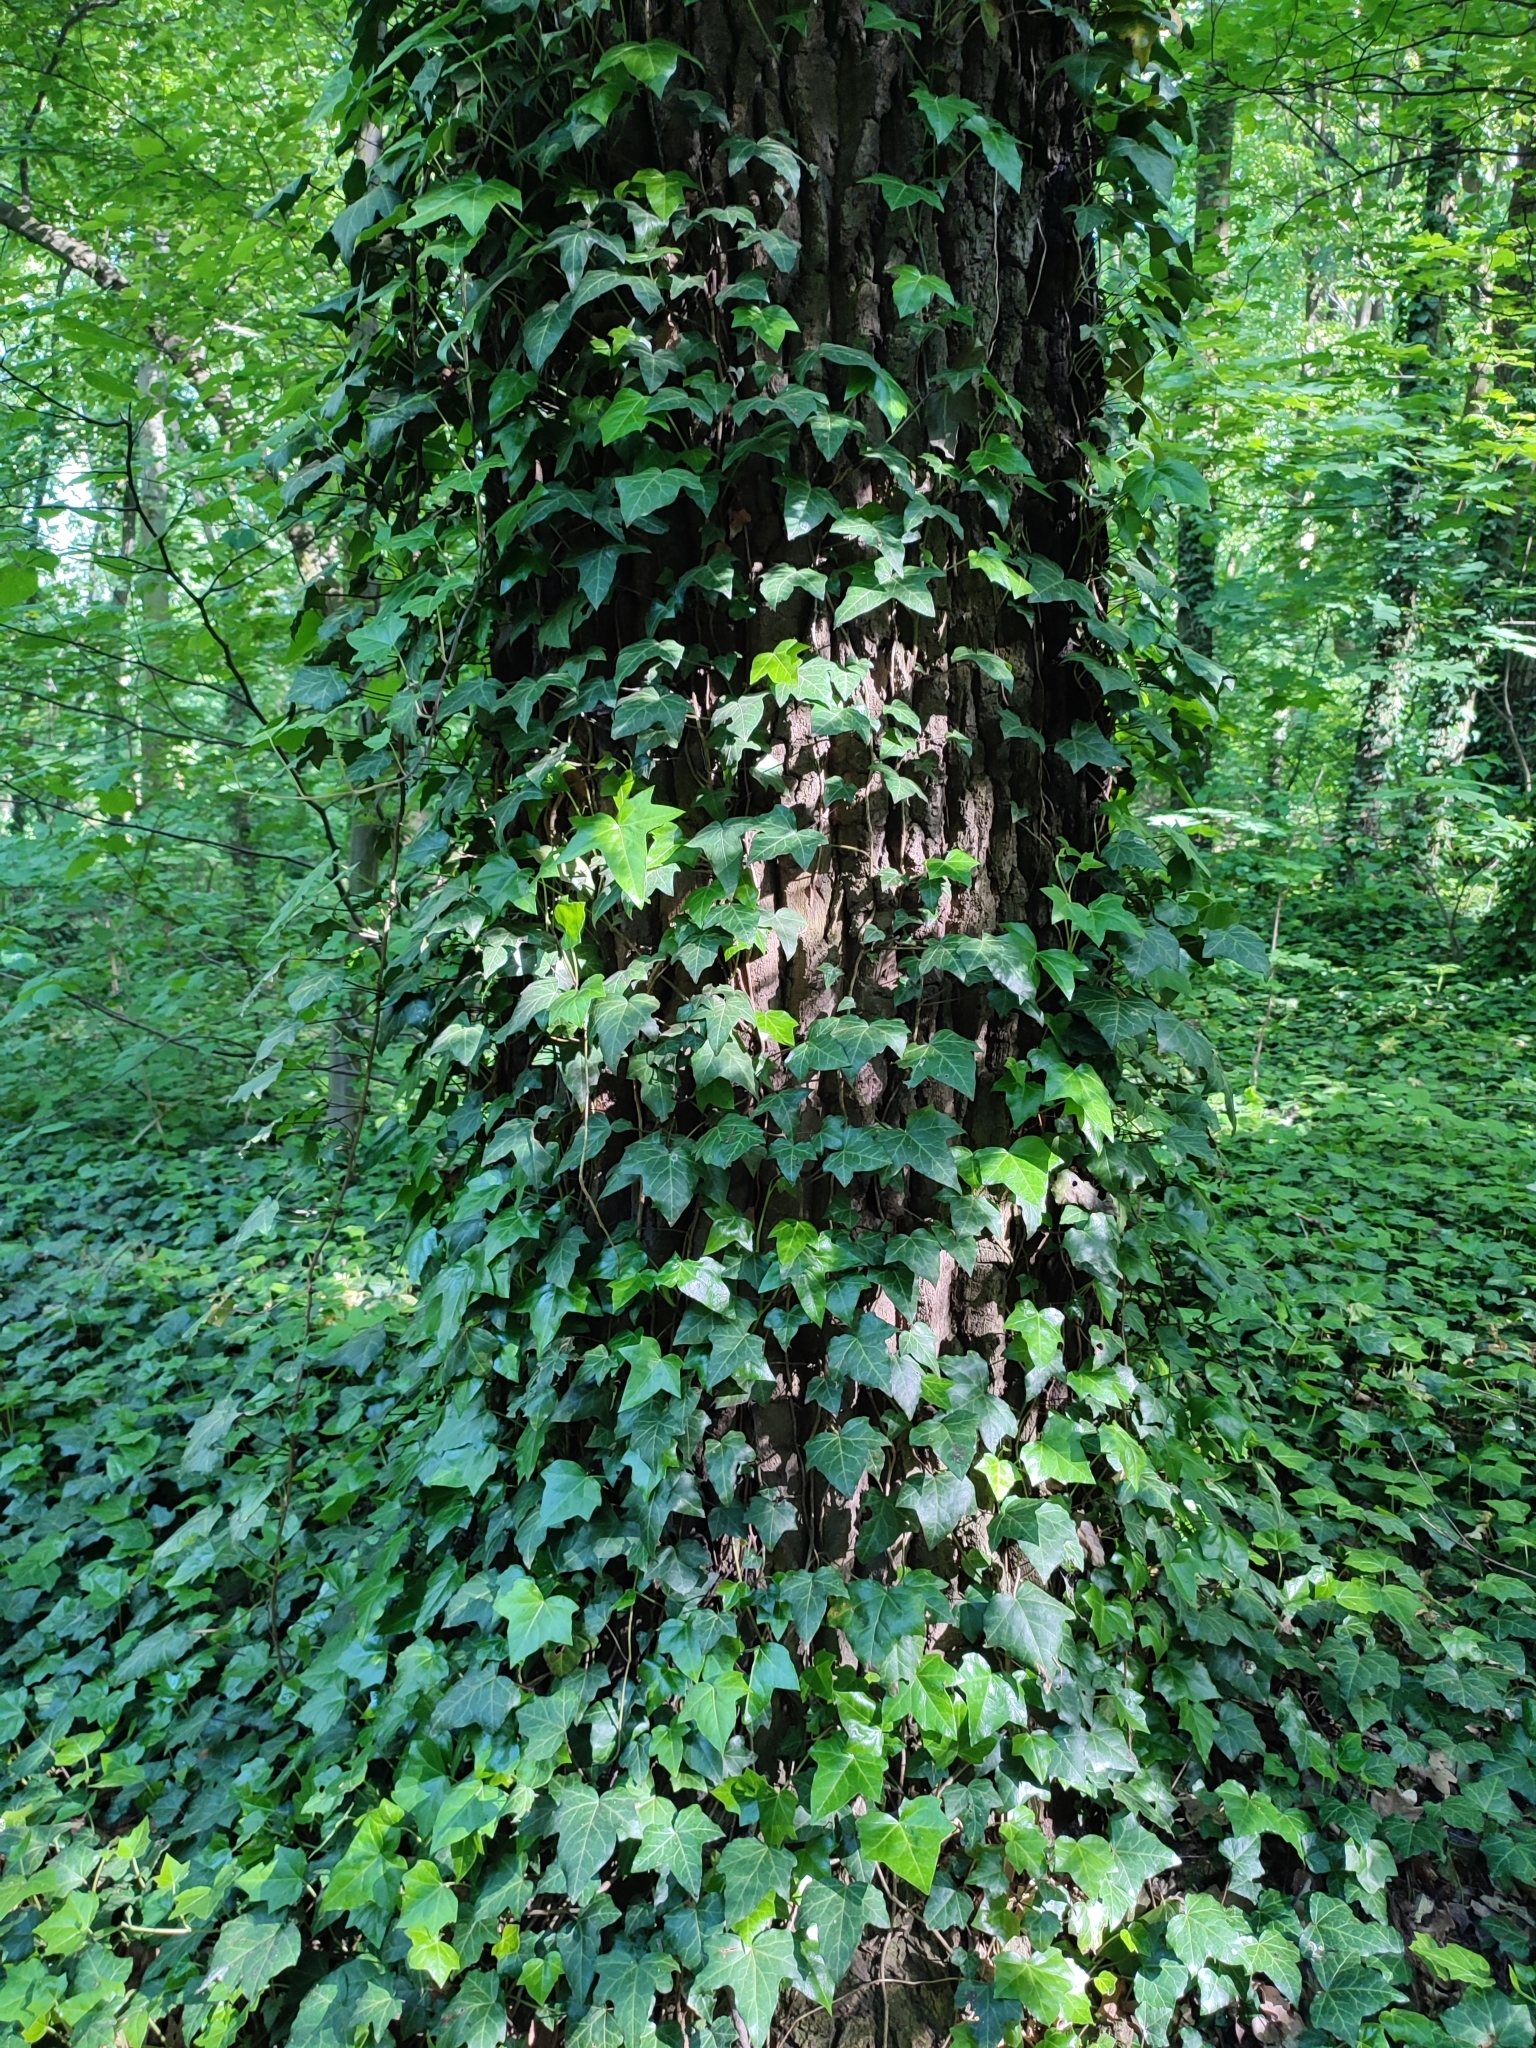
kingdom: Plantae
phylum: Tracheophyta
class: Magnoliopsida
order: Apiales
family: Araliaceae
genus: Hedera
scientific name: Hedera helix
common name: Ivy
